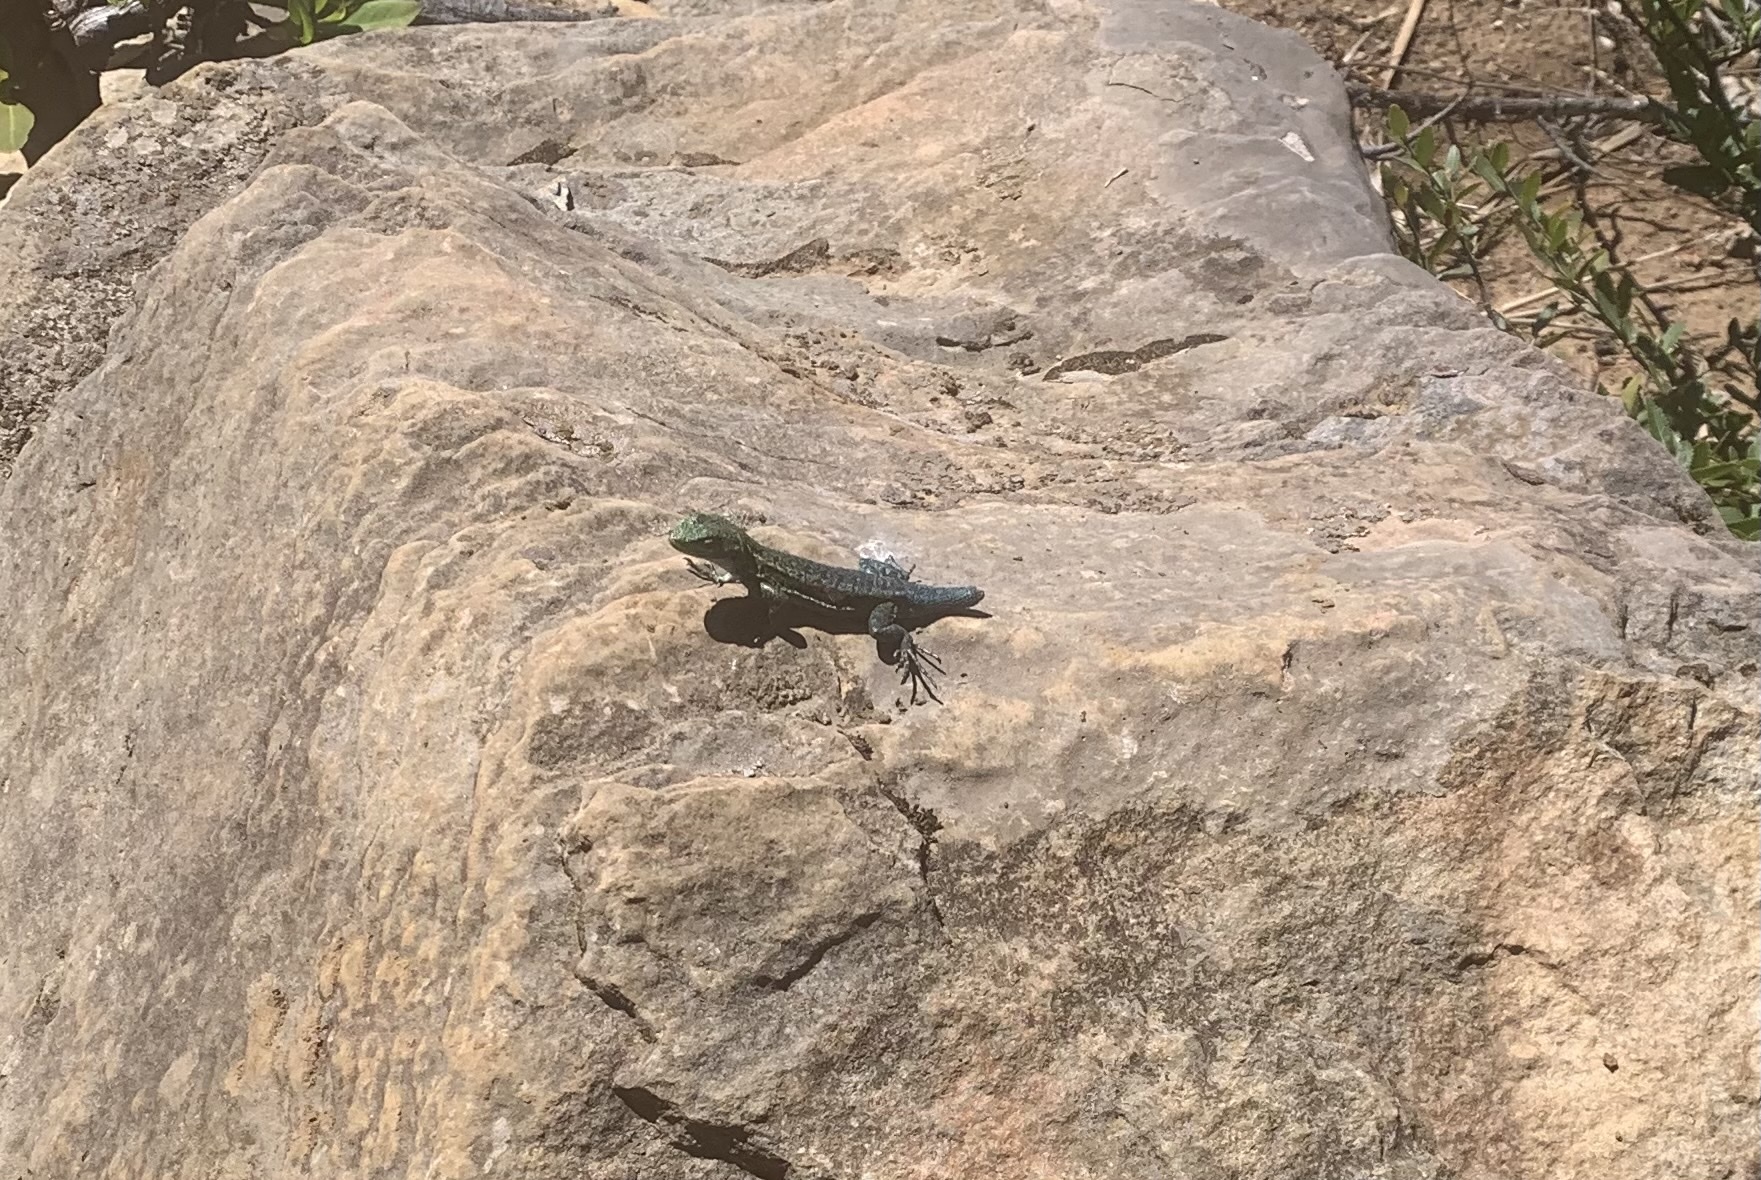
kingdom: Animalia
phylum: Chordata
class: Squamata
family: Liolaemidae
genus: Liolaemus
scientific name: Liolaemus tenuis
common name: Thin tree iguana
